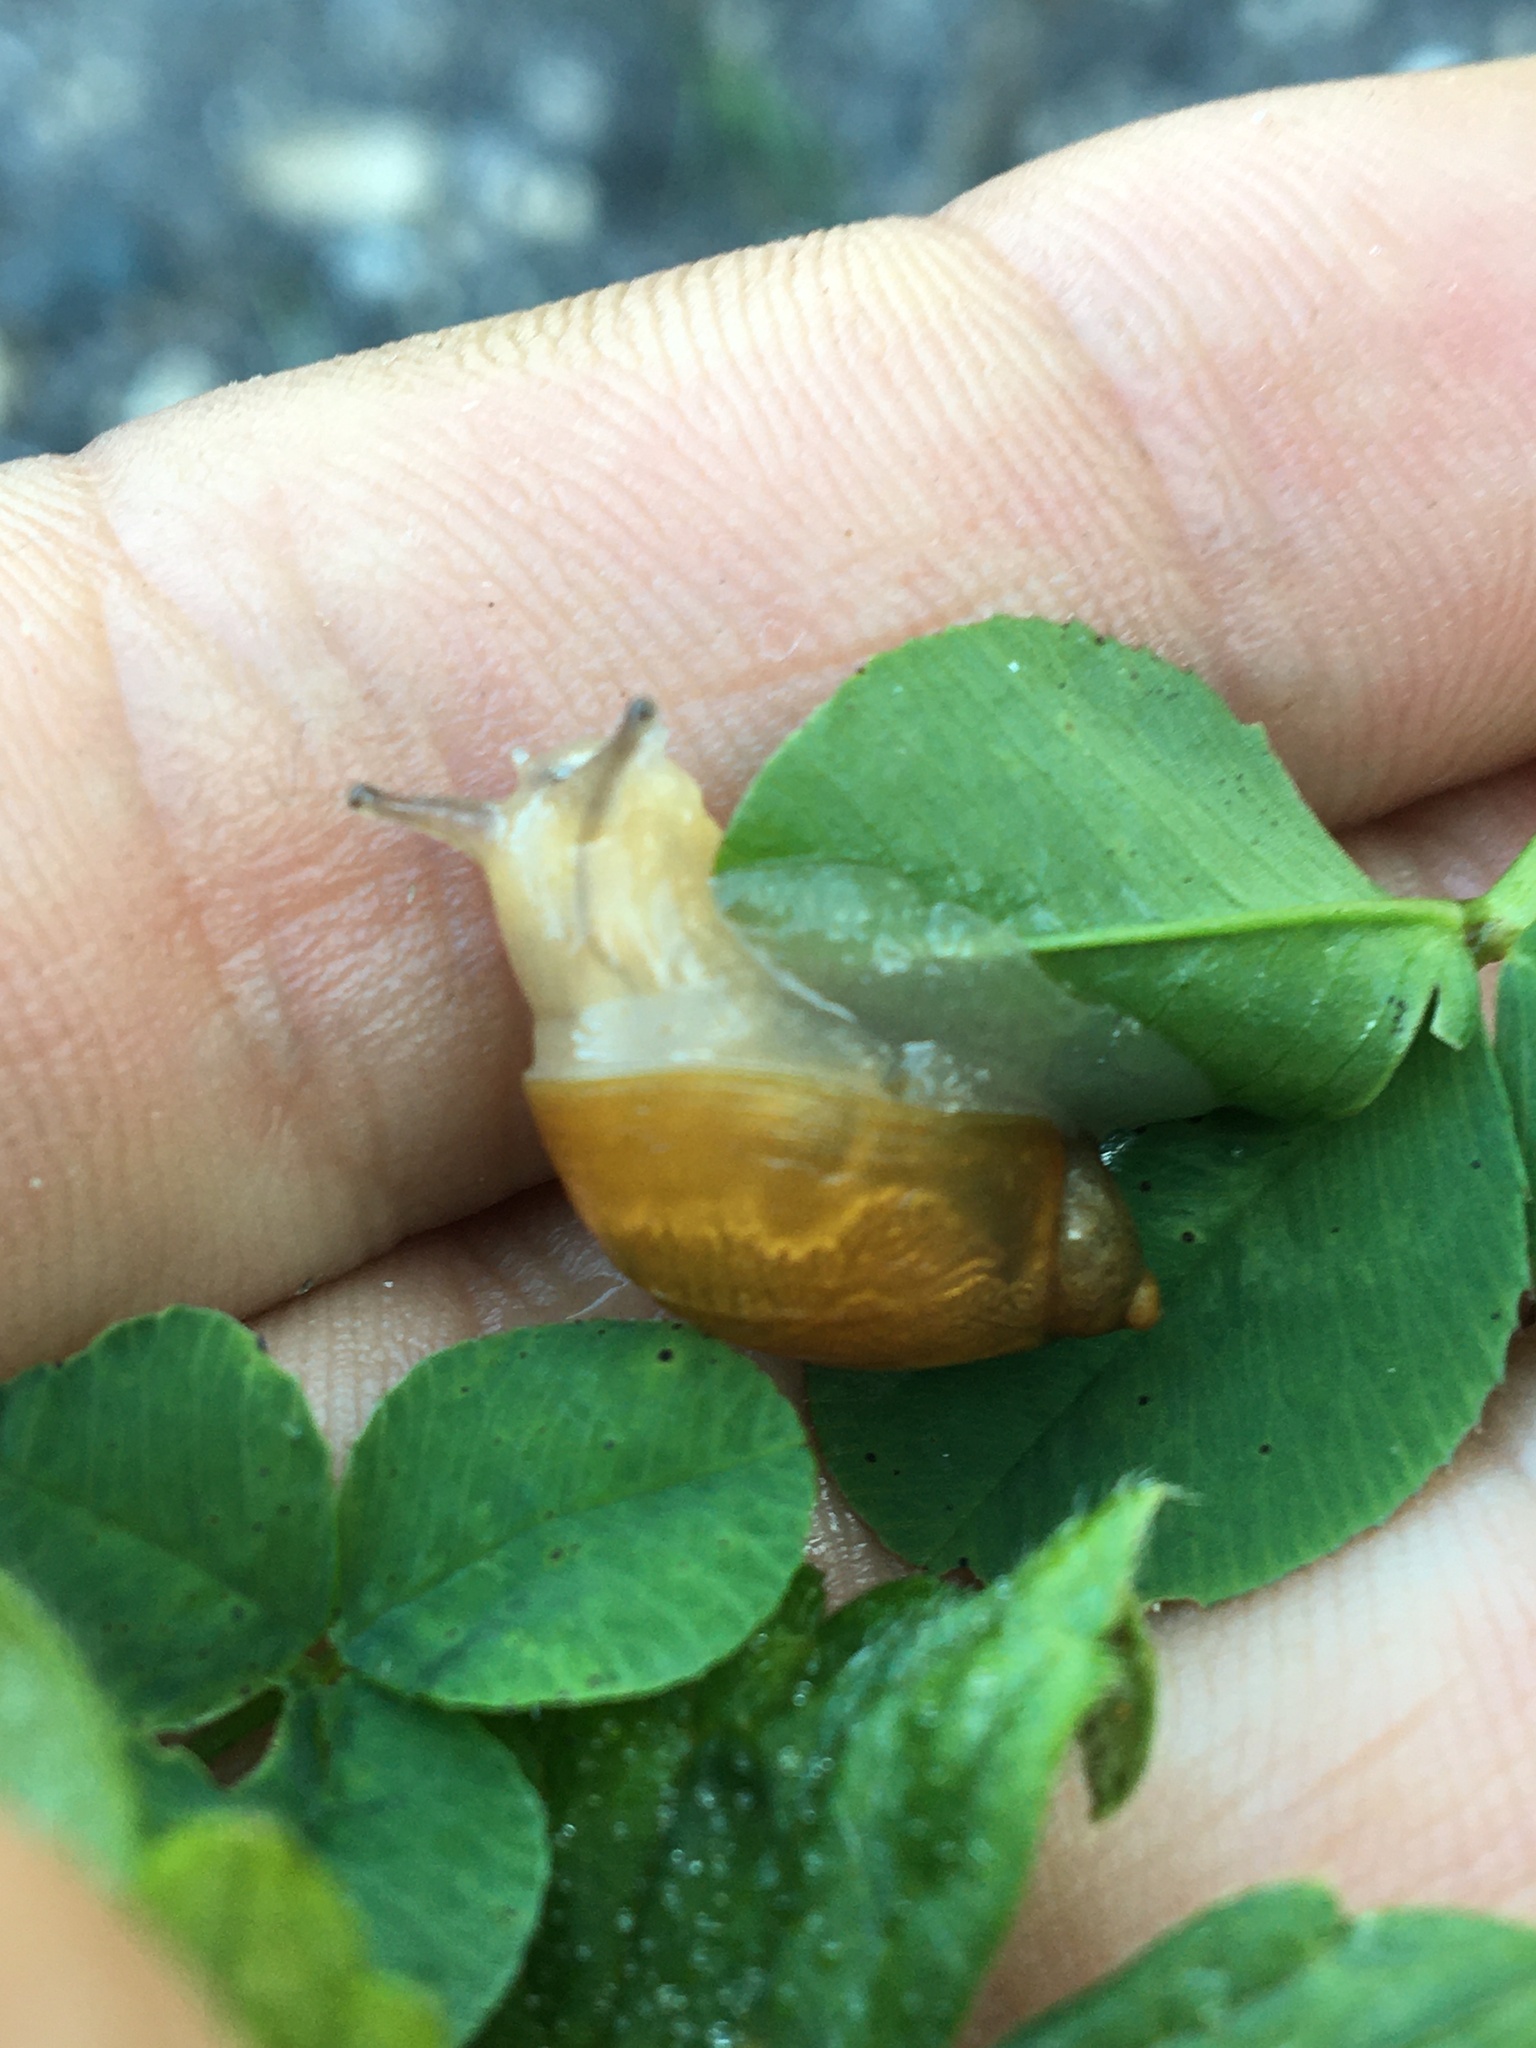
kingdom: Animalia
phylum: Mollusca
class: Gastropoda
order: Stylommatophora
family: Succineidae
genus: Succinea
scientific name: Succinea putris
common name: European ambersnail
